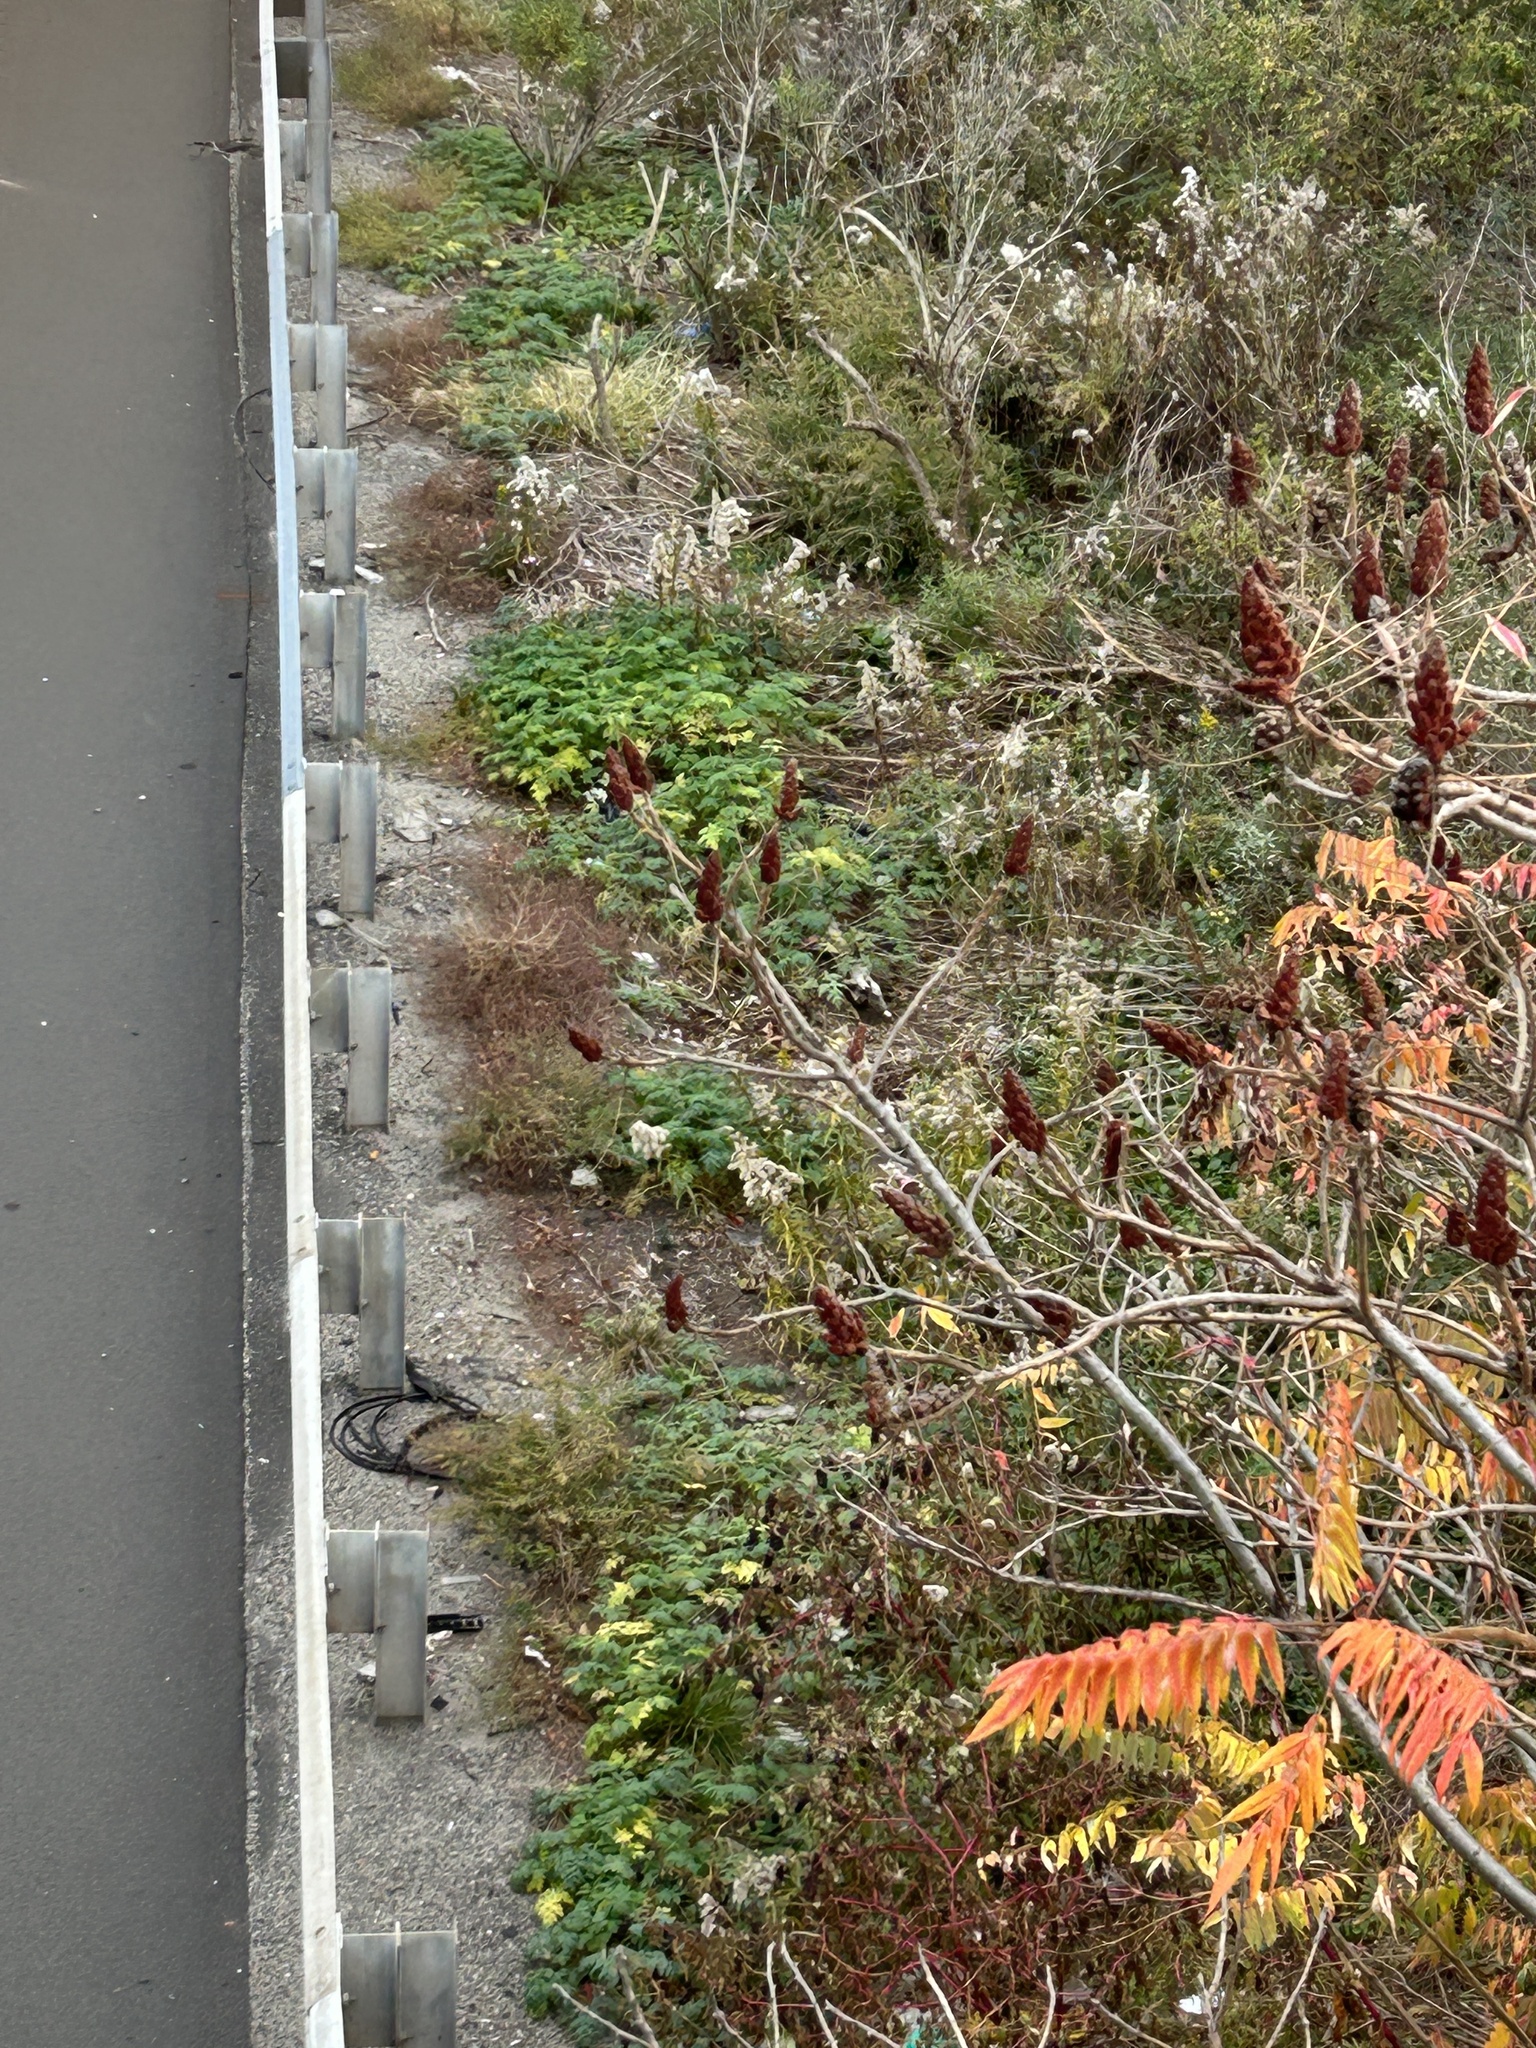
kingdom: Plantae
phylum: Tracheophyta
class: Magnoliopsida
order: Apiales
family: Apiaceae
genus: Conium
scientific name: Conium maculatum
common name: Hemlock
